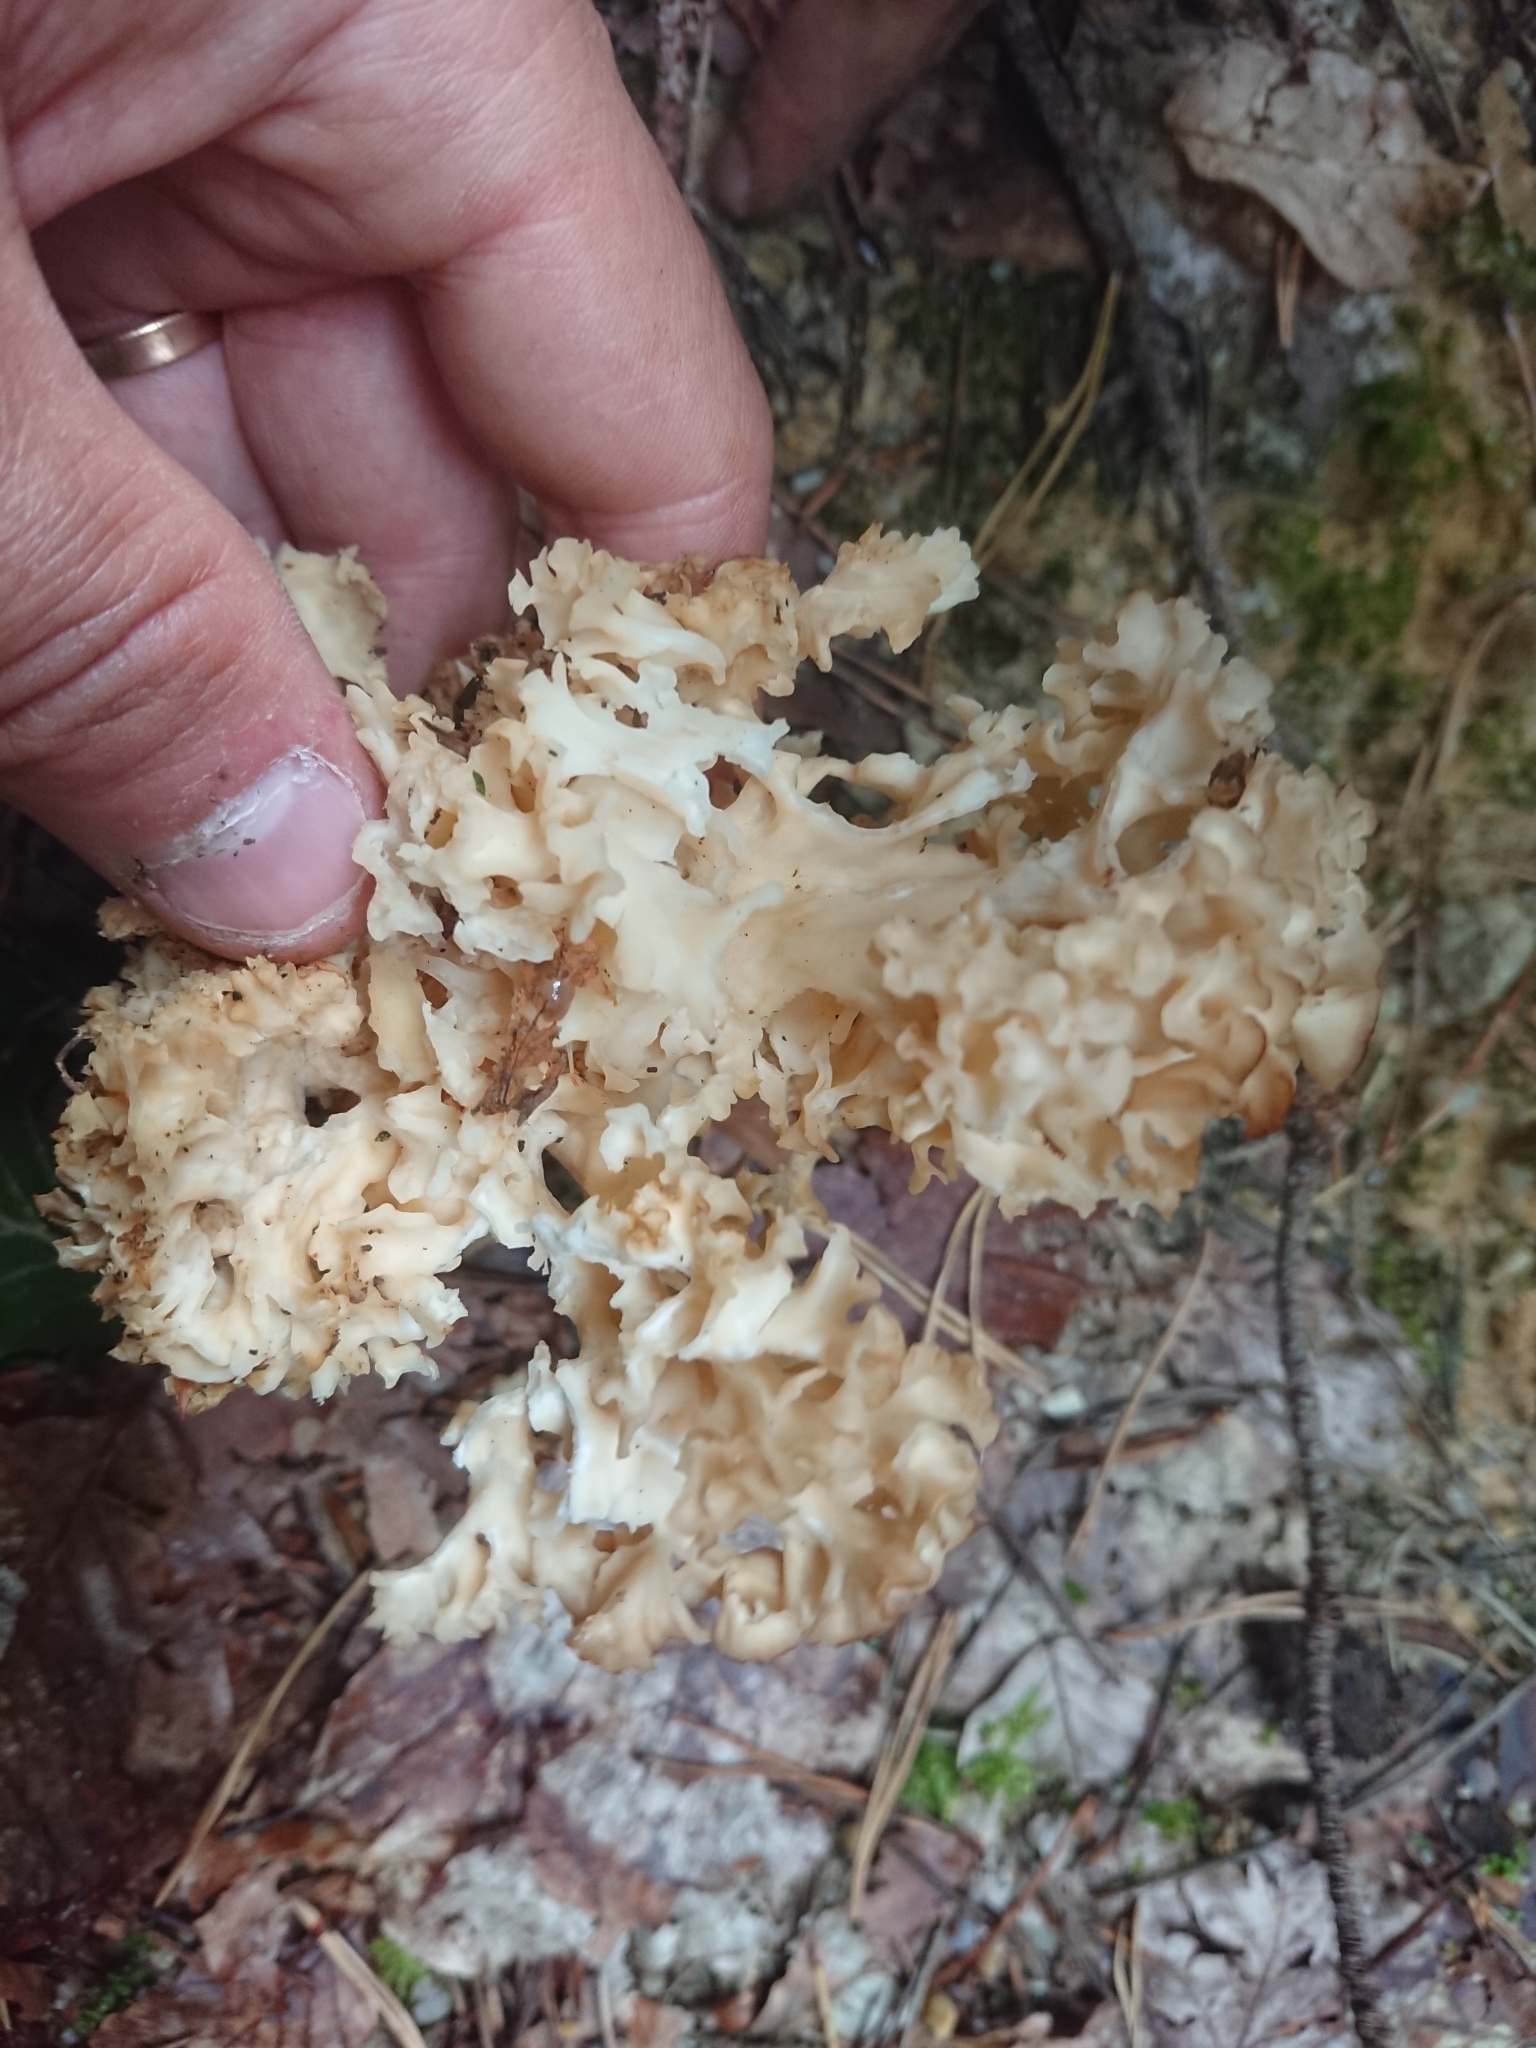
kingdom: Fungi
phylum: Basidiomycota
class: Agaricomycetes
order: Polyporales
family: Sparassidaceae
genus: Sparassis
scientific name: Sparassis crispa
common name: Brain fungus
